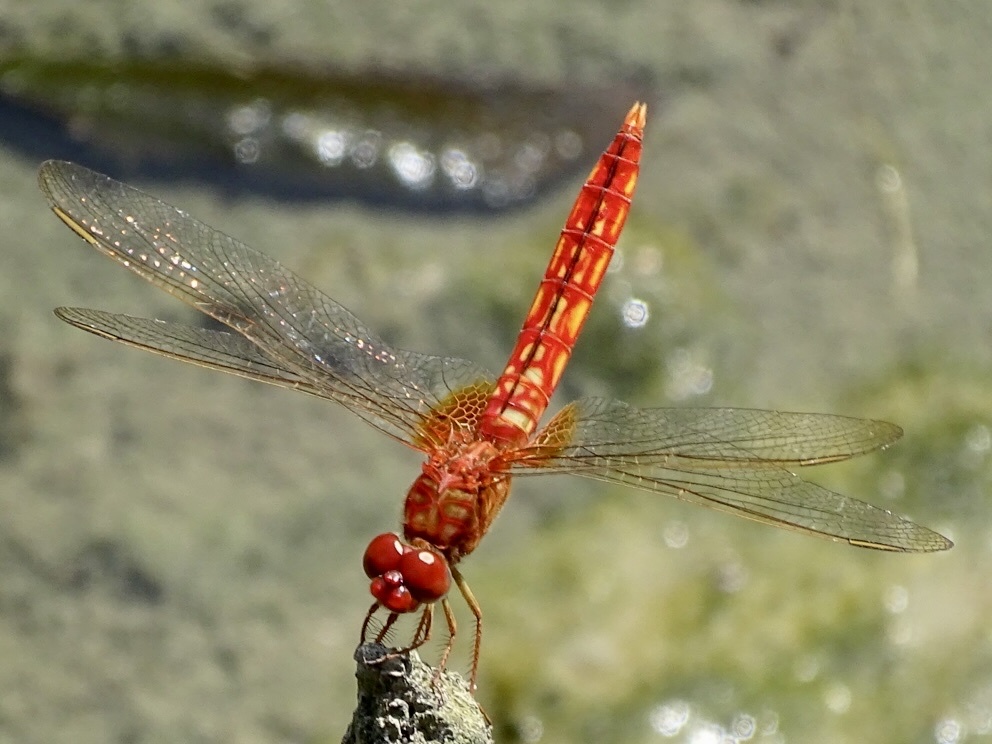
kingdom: Animalia
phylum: Arthropoda
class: Insecta
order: Odonata
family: Libellulidae
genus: Crocothemis
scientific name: Crocothemis servilia
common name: Scarlet skimmer
